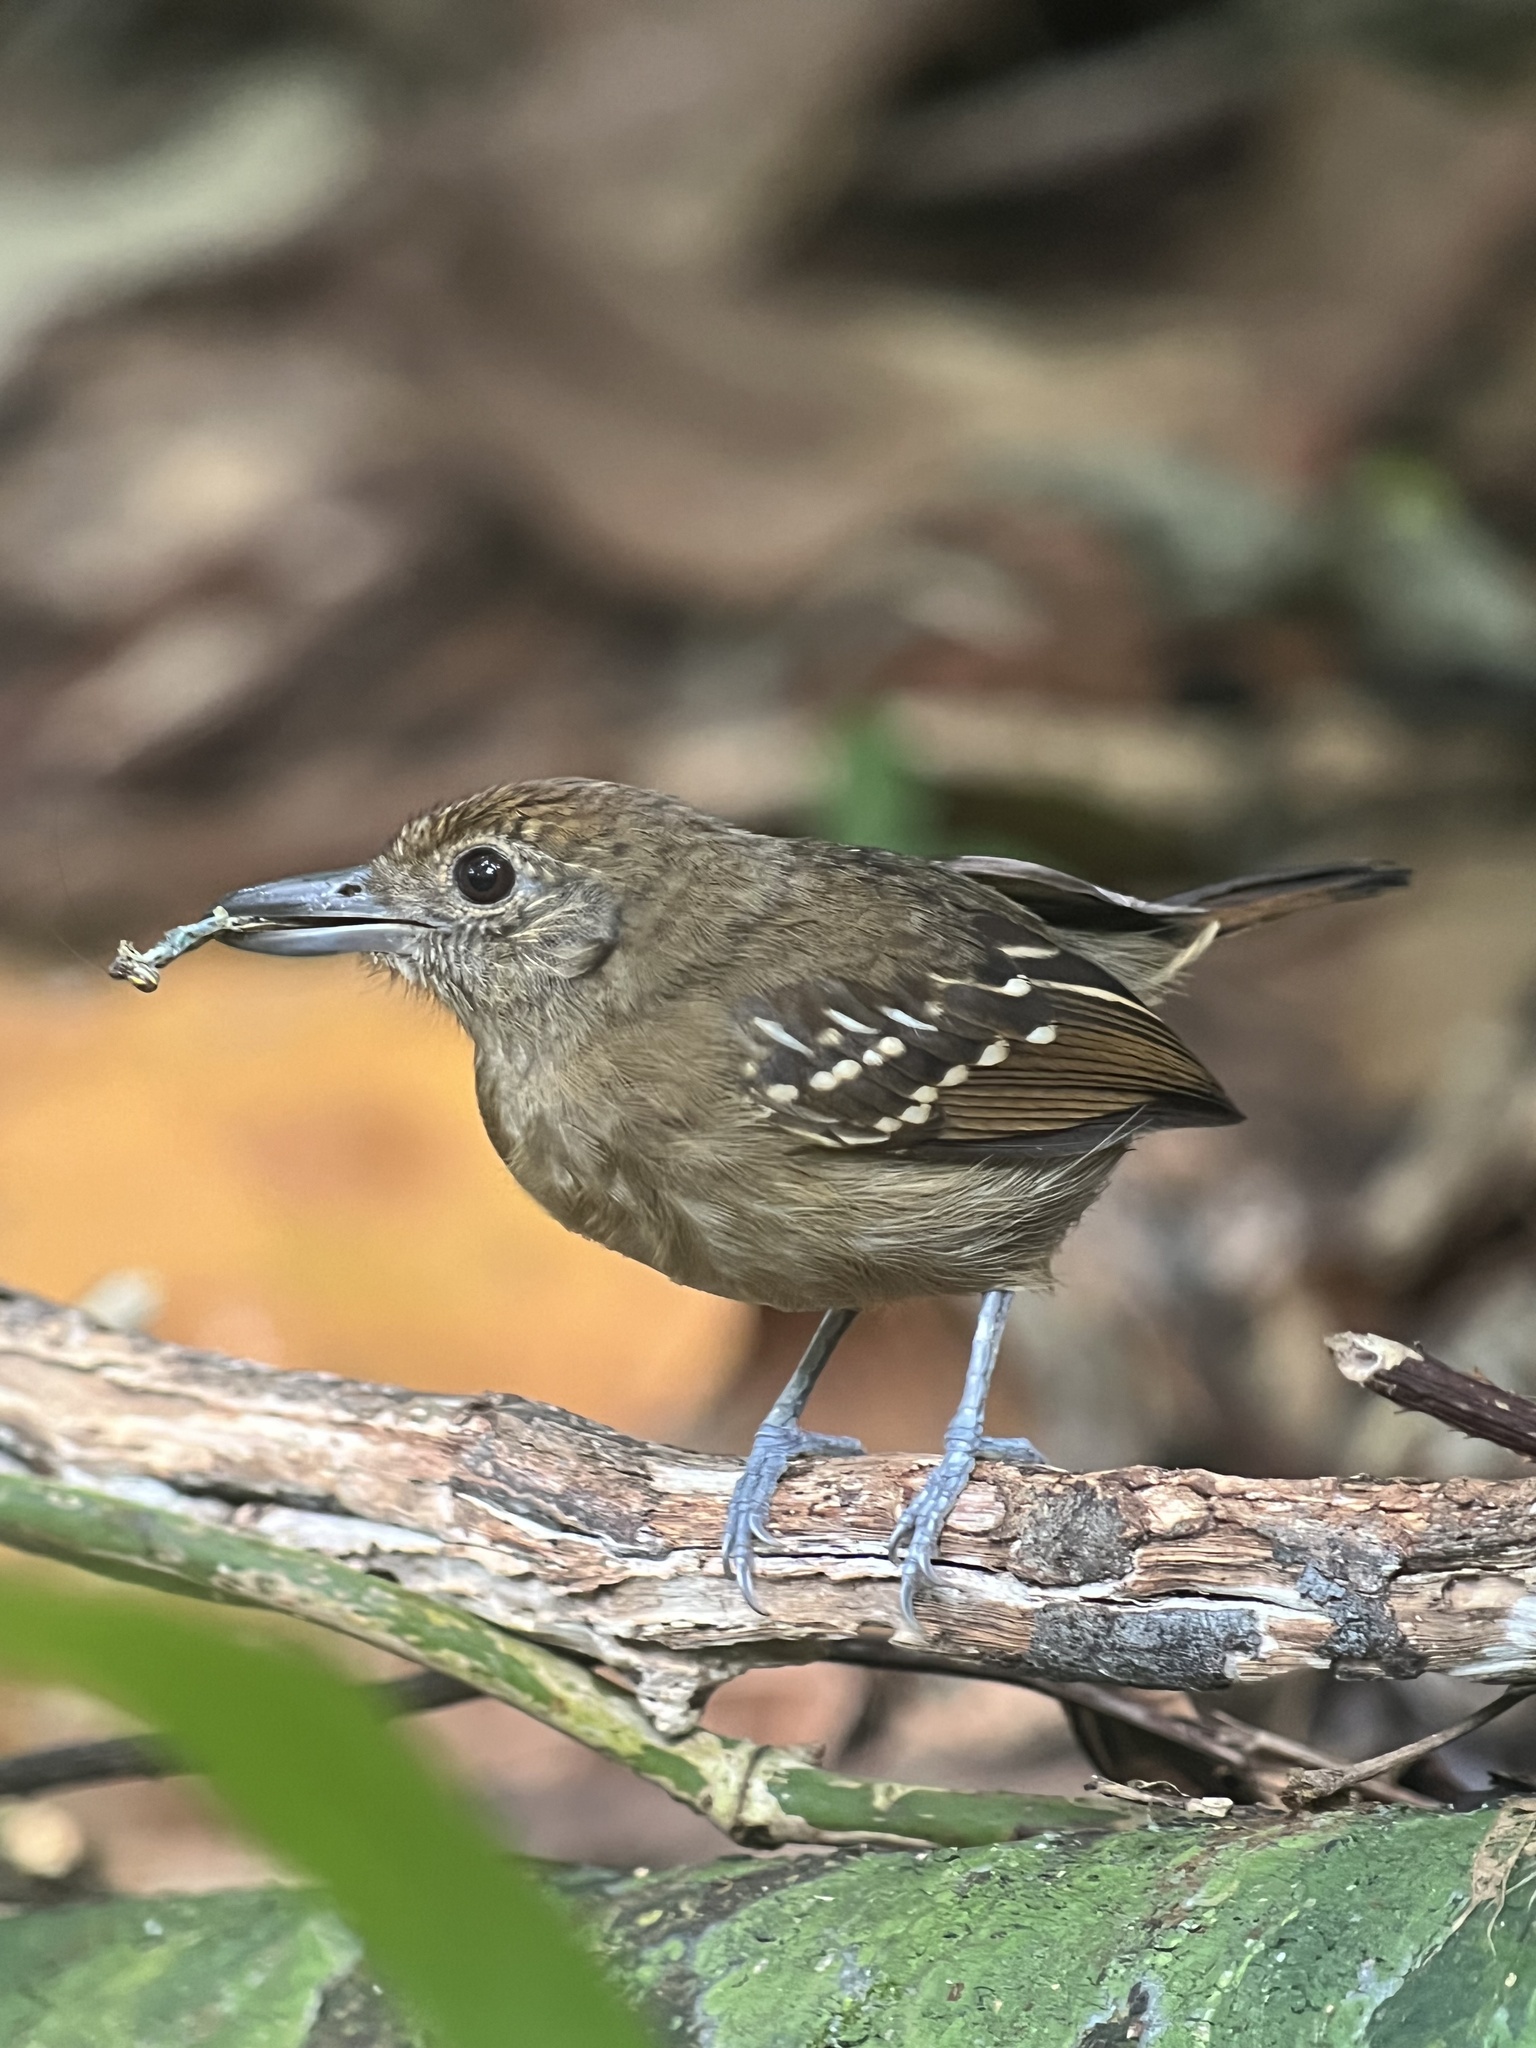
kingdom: Animalia
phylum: Chordata
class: Aves
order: Passeriformes
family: Thamnophilidae
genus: Thamnophilus
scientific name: Thamnophilus atrinucha
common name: Black-crowned antshrike
